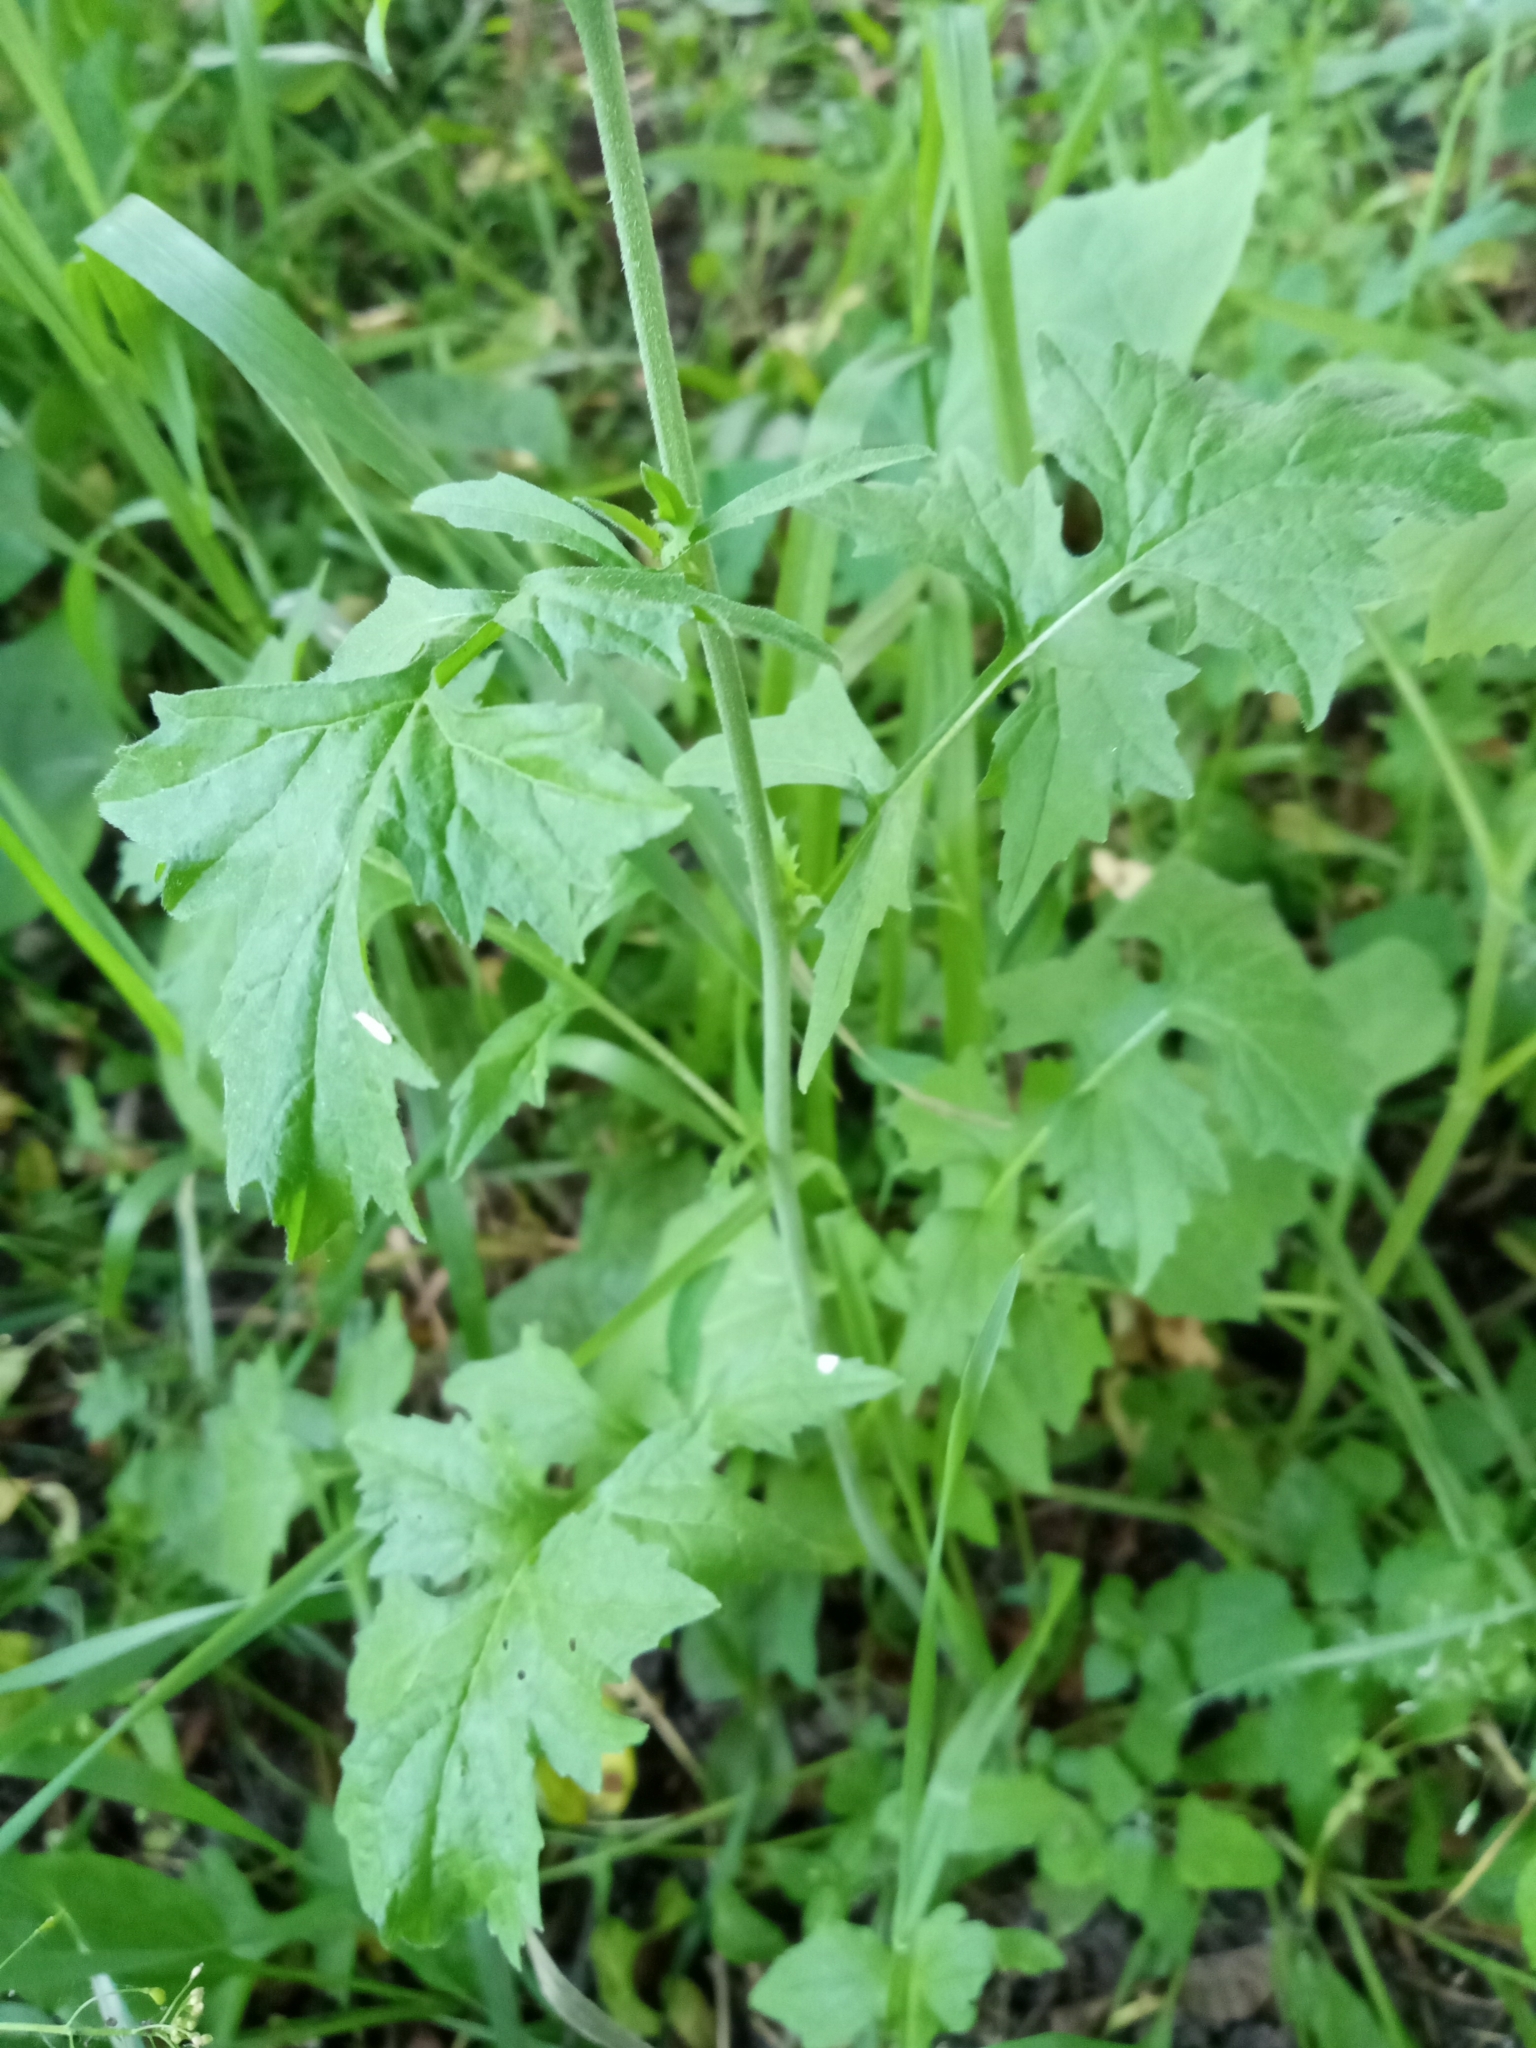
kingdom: Plantae
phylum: Tracheophyta
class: Magnoliopsida
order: Brassicales
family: Brassicaceae
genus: Sisymbrium
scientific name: Sisymbrium officinale
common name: Hedge mustard
